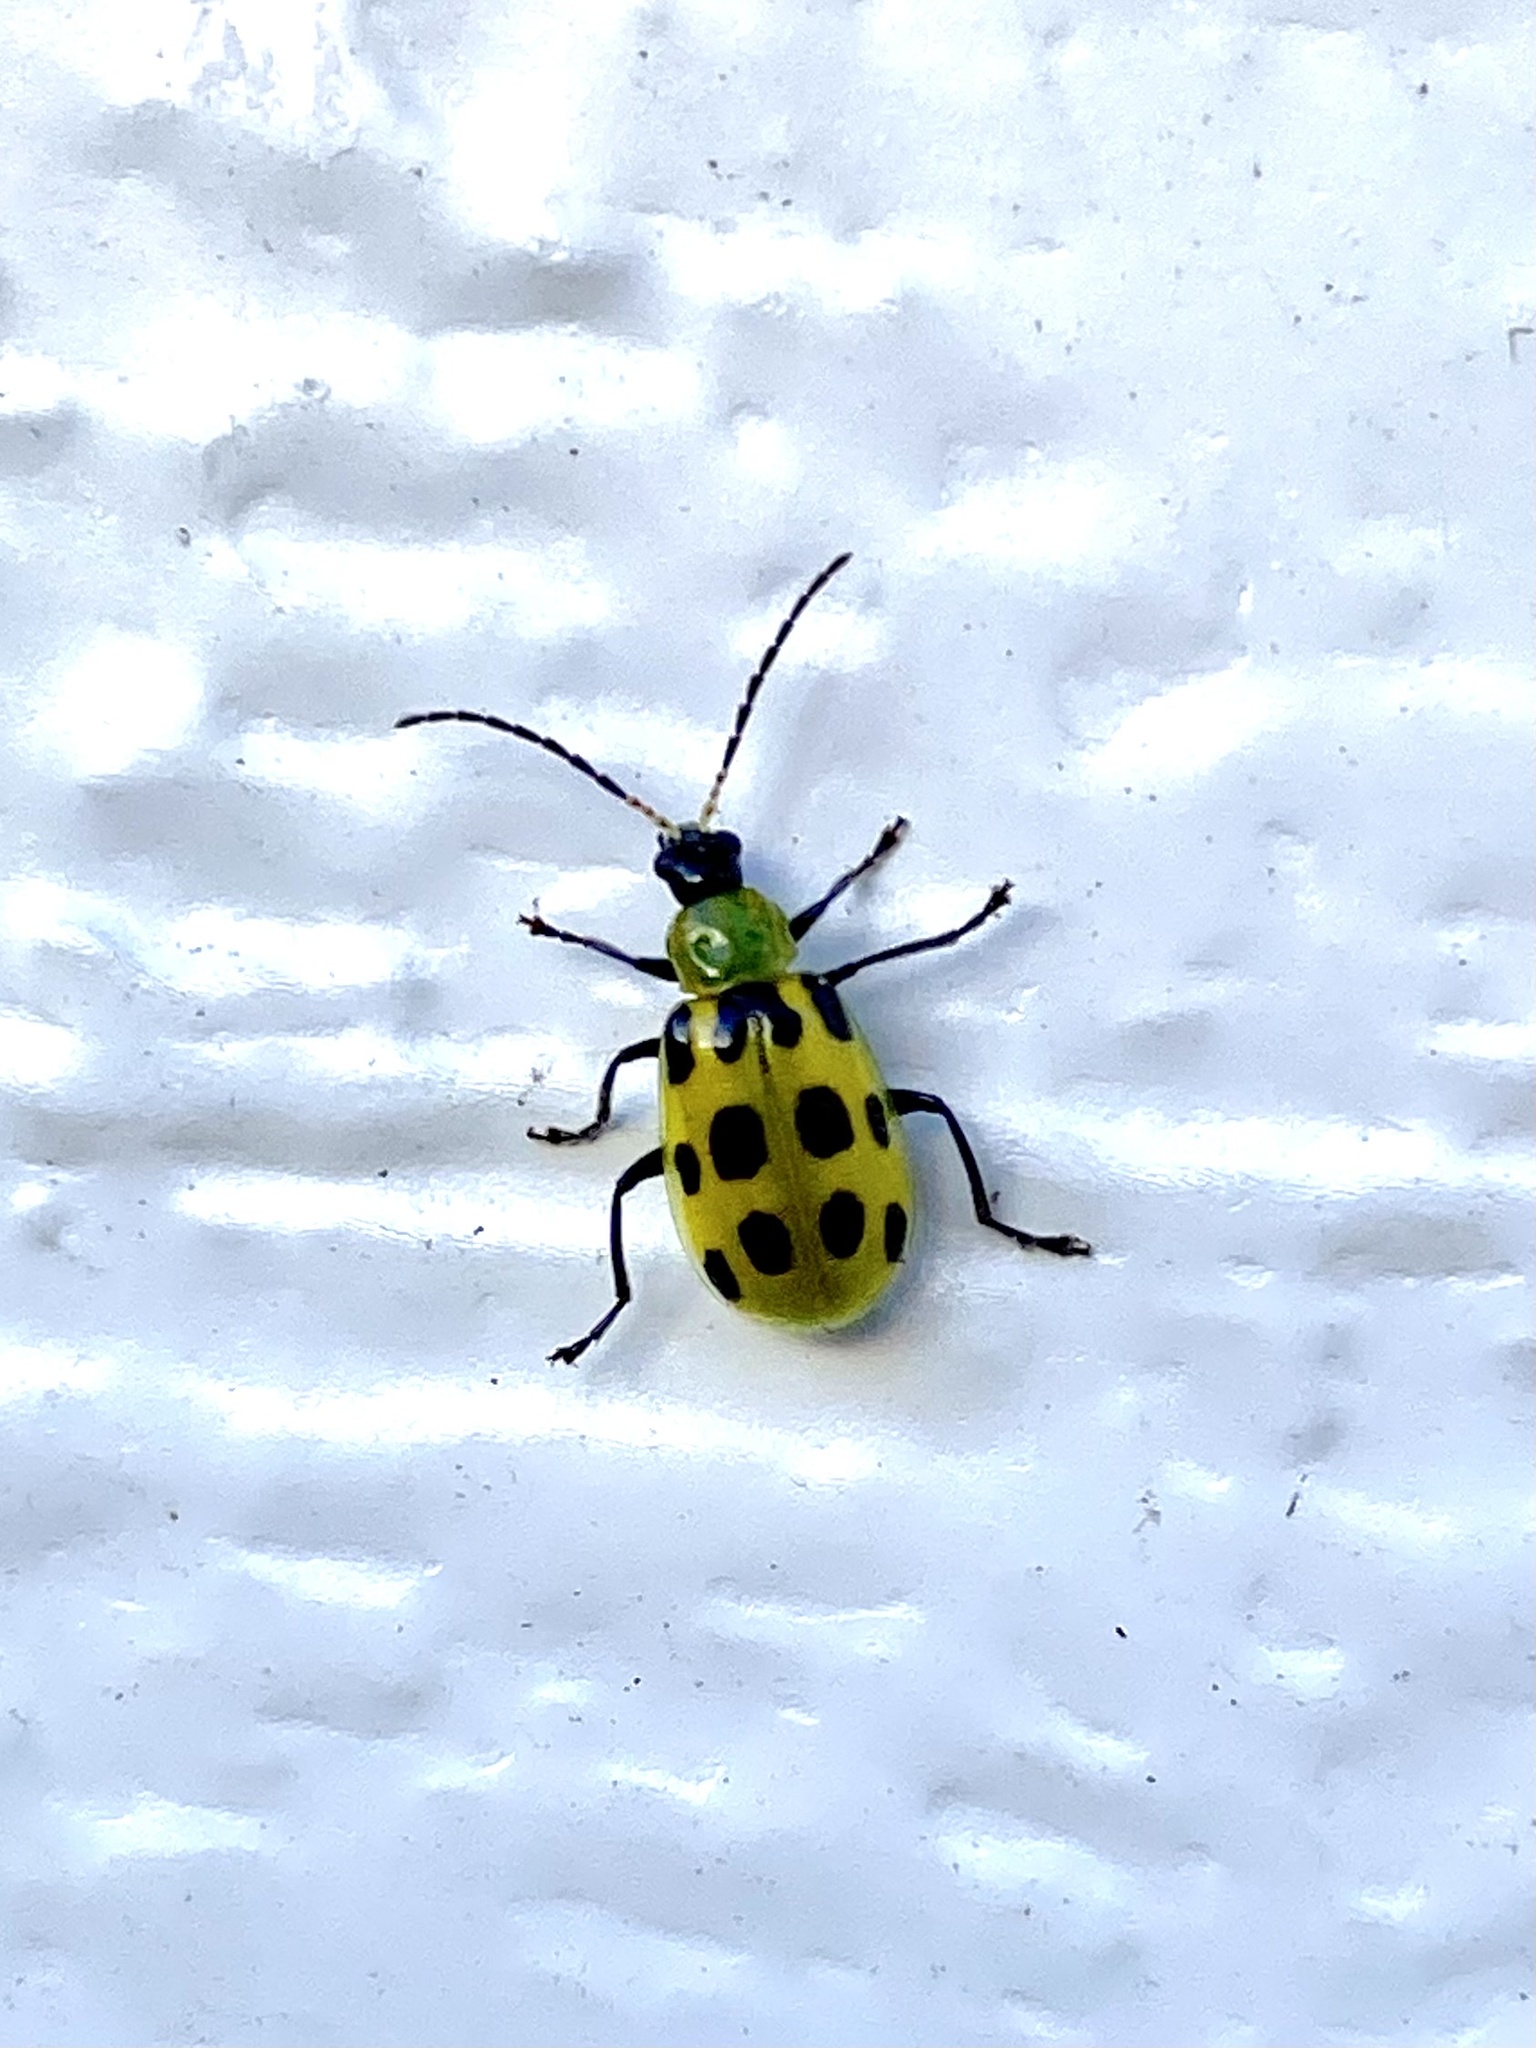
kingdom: Animalia
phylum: Arthropoda
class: Insecta
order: Coleoptera
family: Chrysomelidae
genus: Diabrotica
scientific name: Diabrotica undecimpunctata
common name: Spotted cucumber beetle
